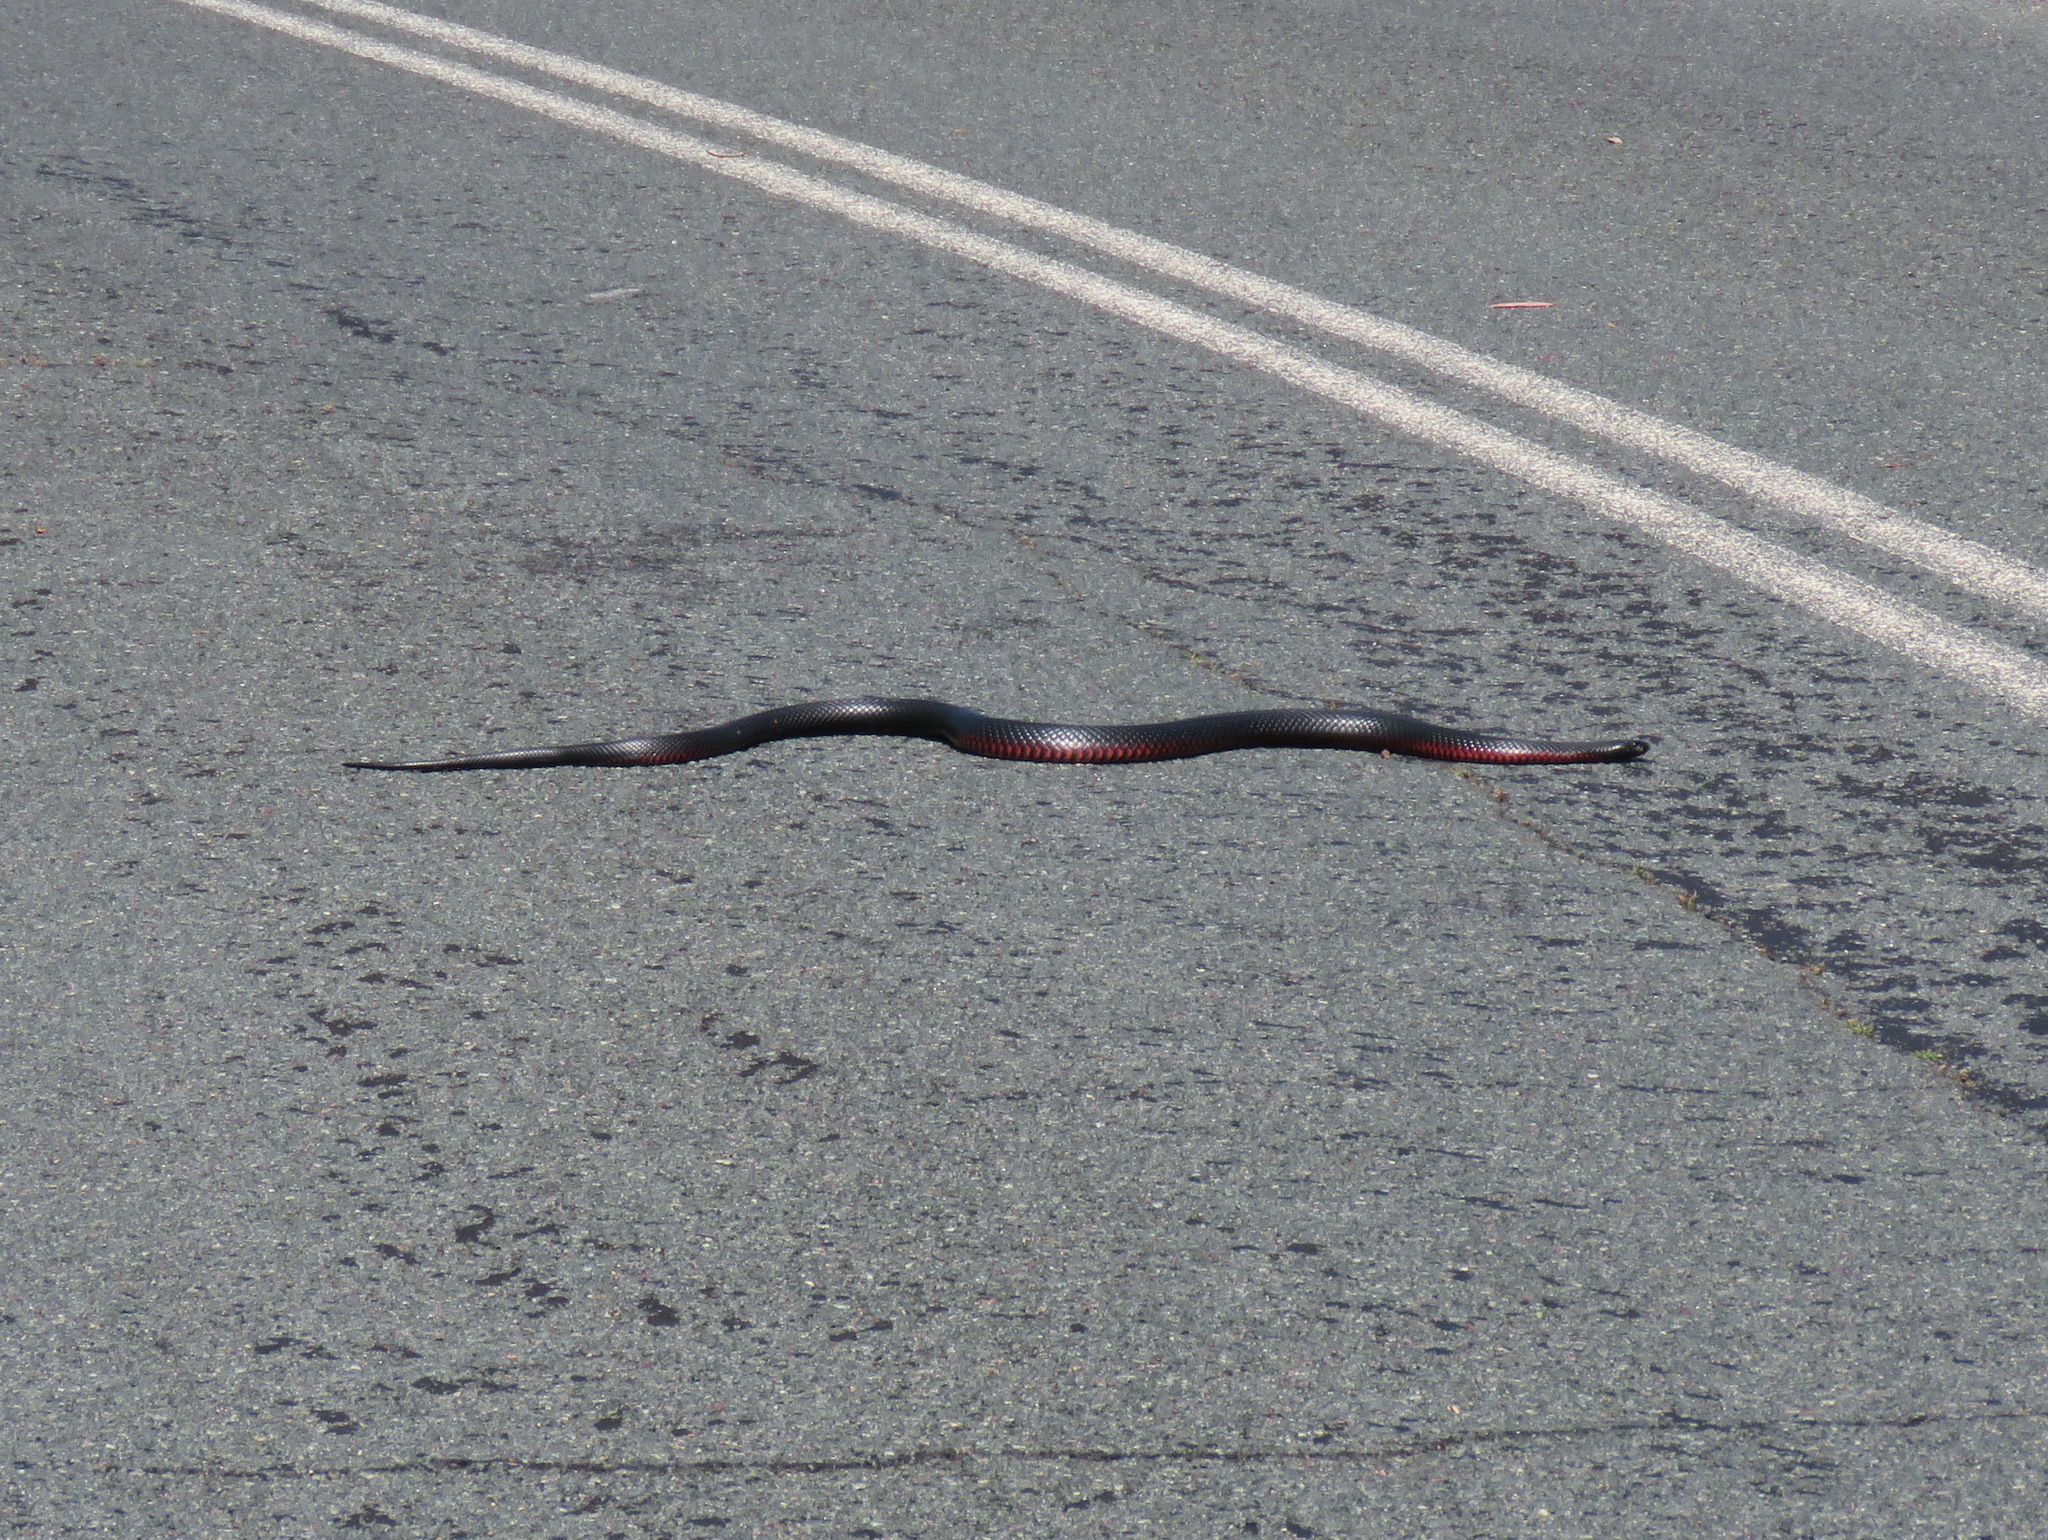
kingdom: Animalia
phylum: Chordata
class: Squamata
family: Elapidae
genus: Pseudechis
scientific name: Pseudechis porphyriacus
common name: Australian black snake
